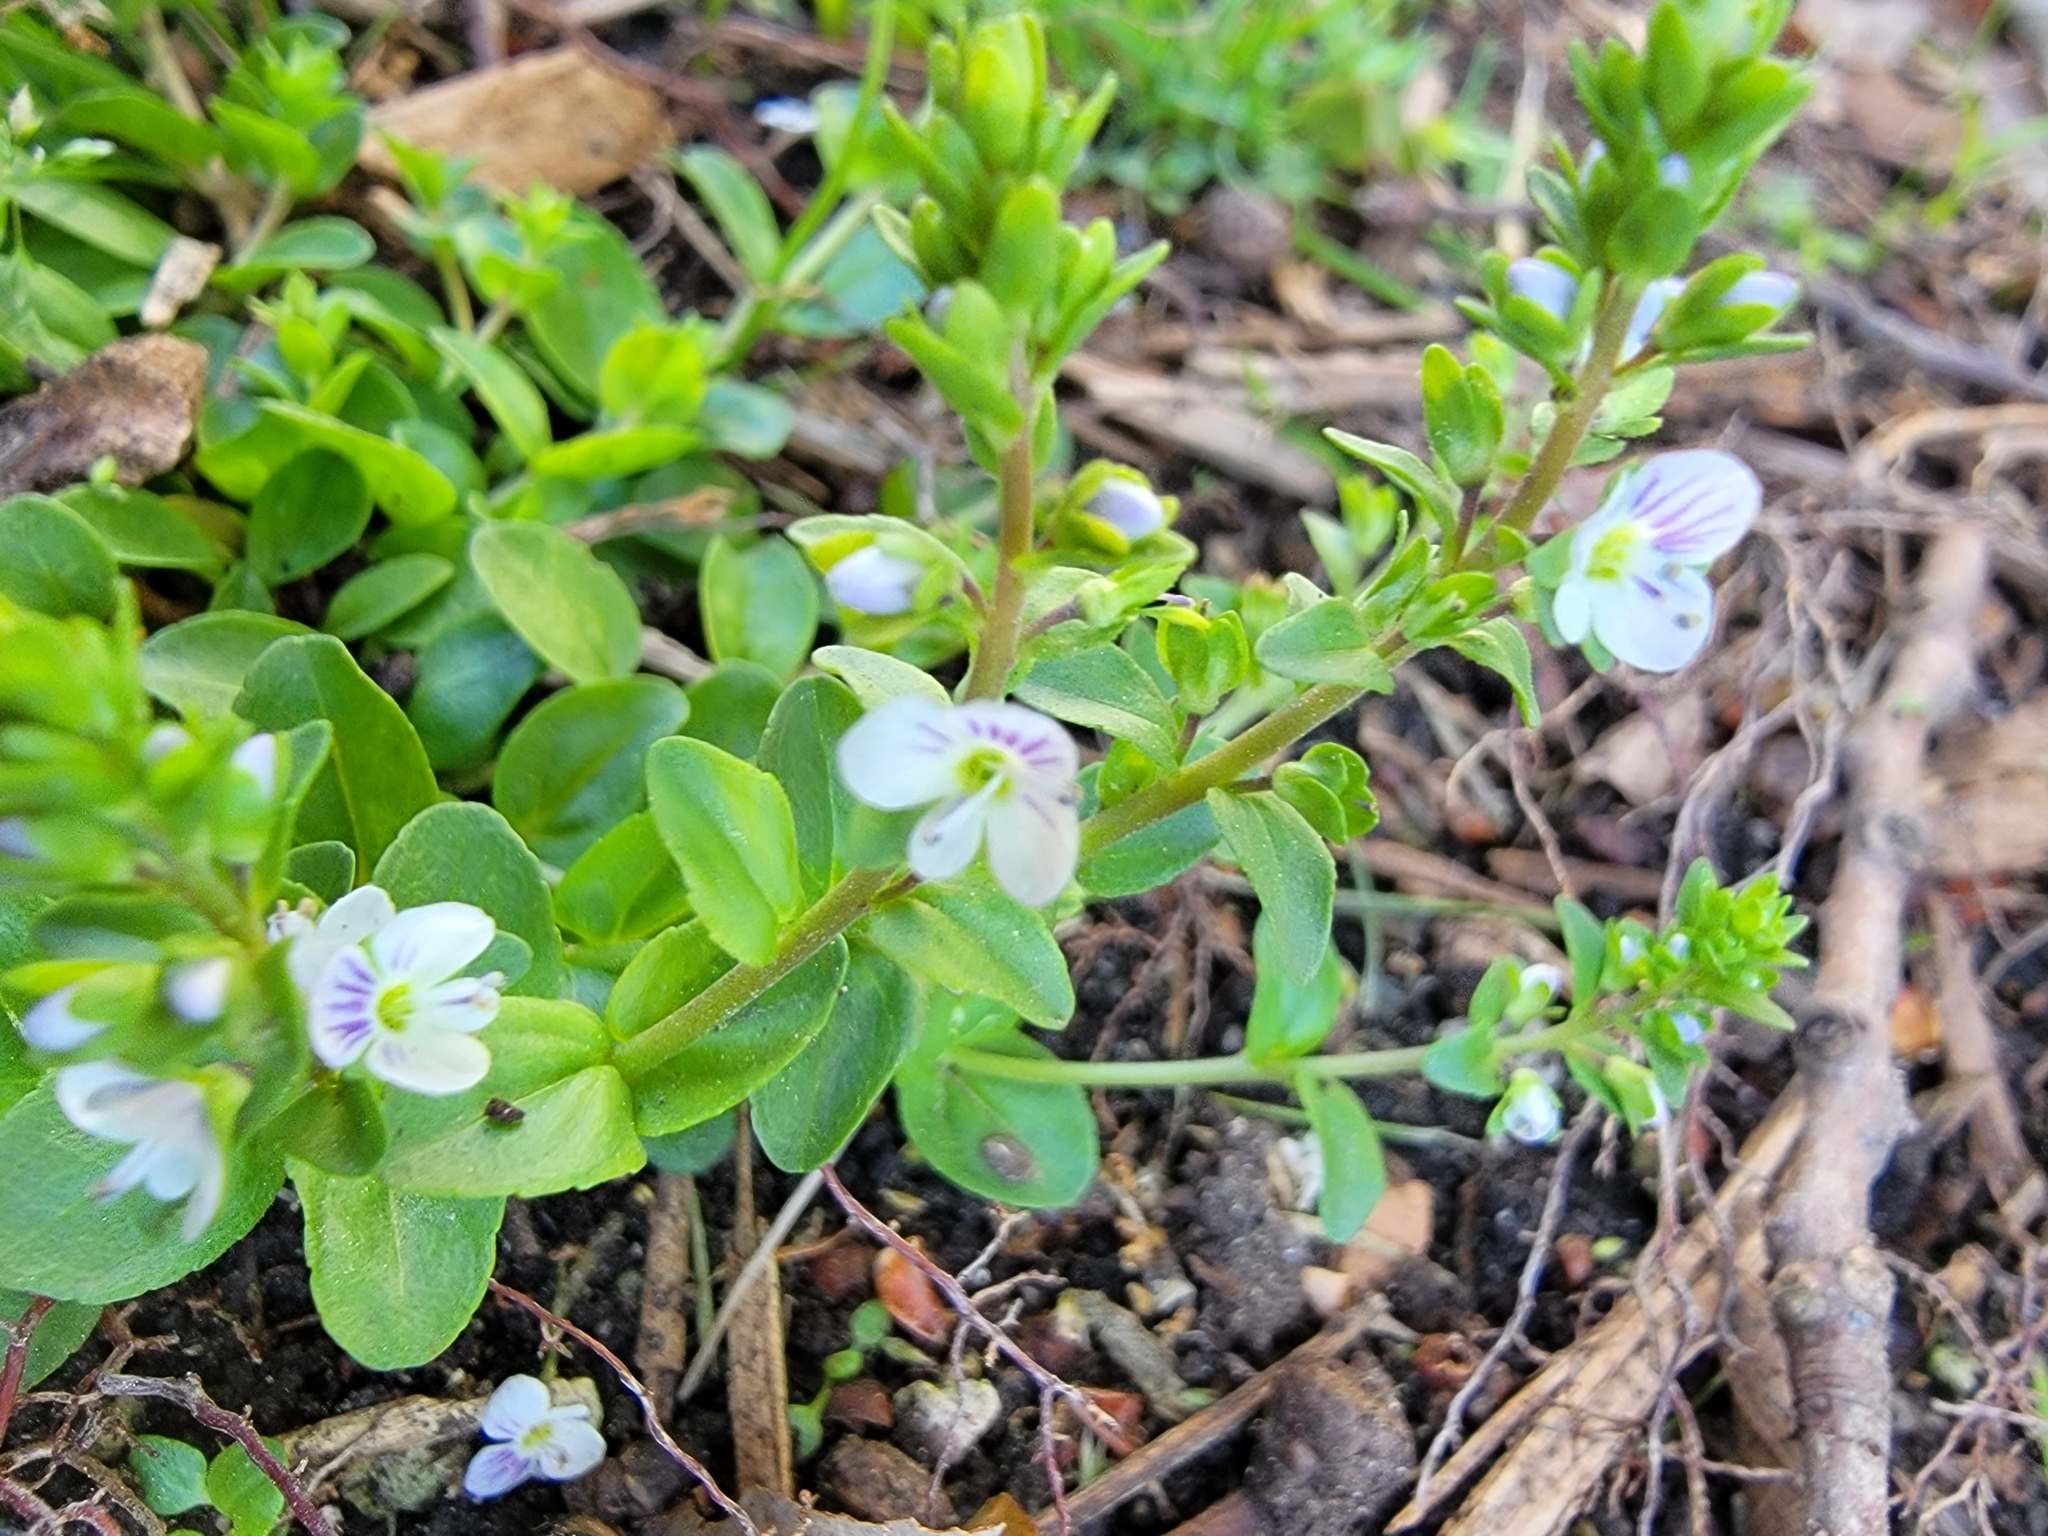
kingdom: Plantae
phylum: Tracheophyta
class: Magnoliopsida
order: Lamiales
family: Plantaginaceae
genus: Veronica
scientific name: Veronica serpyllifolia
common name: Thyme-leaved speedwell
